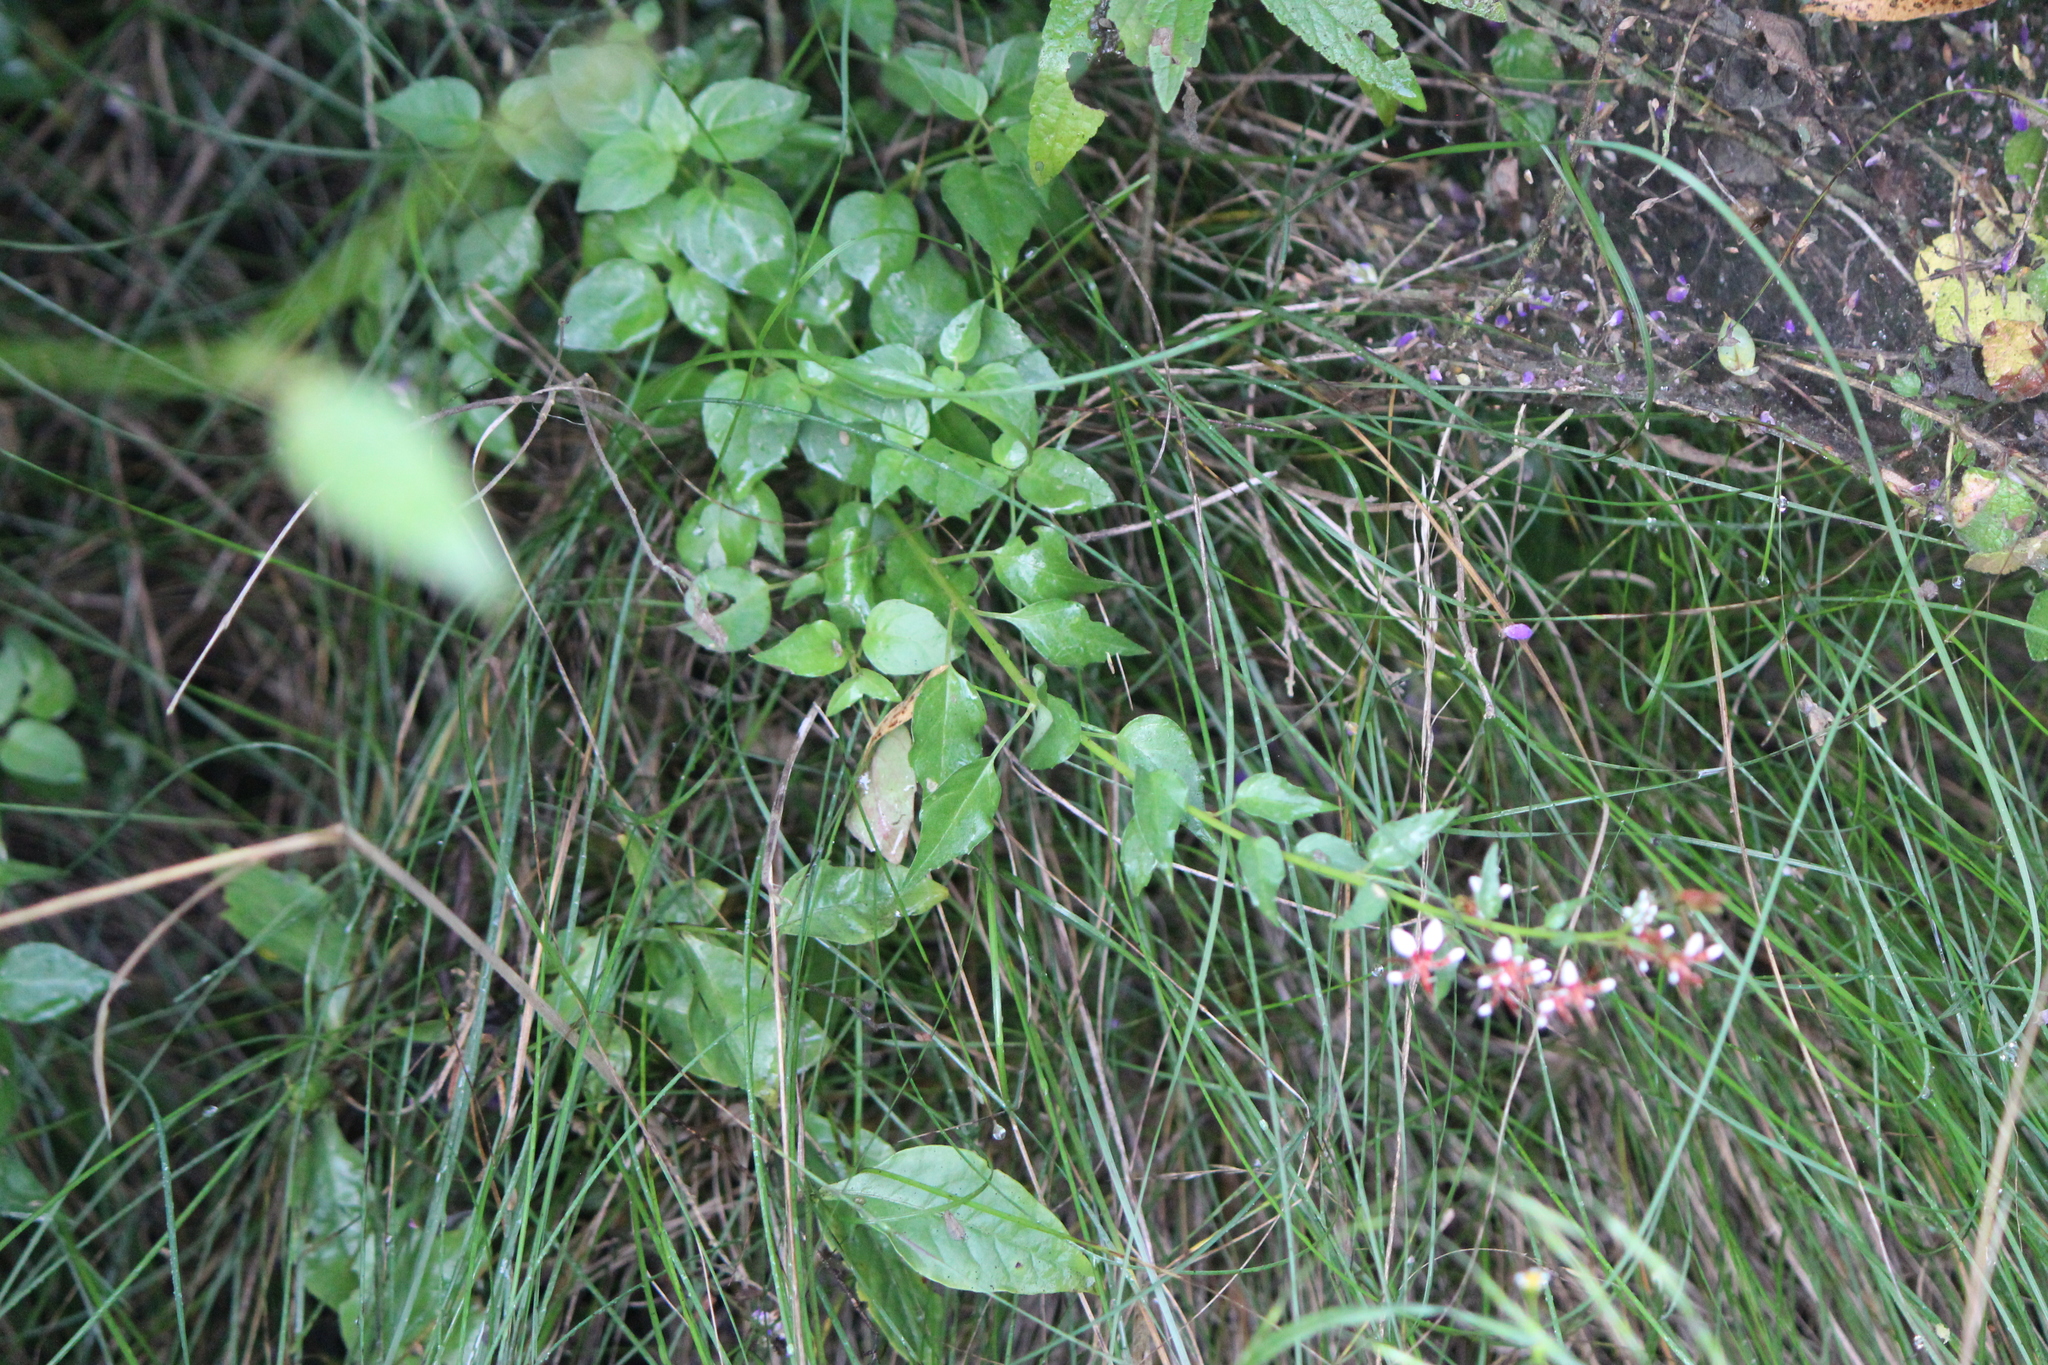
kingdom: Plantae
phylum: Tracheophyta
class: Magnoliopsida
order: Myrtales
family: Onagraceae
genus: Lopezia
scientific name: Lopezia racemosa
